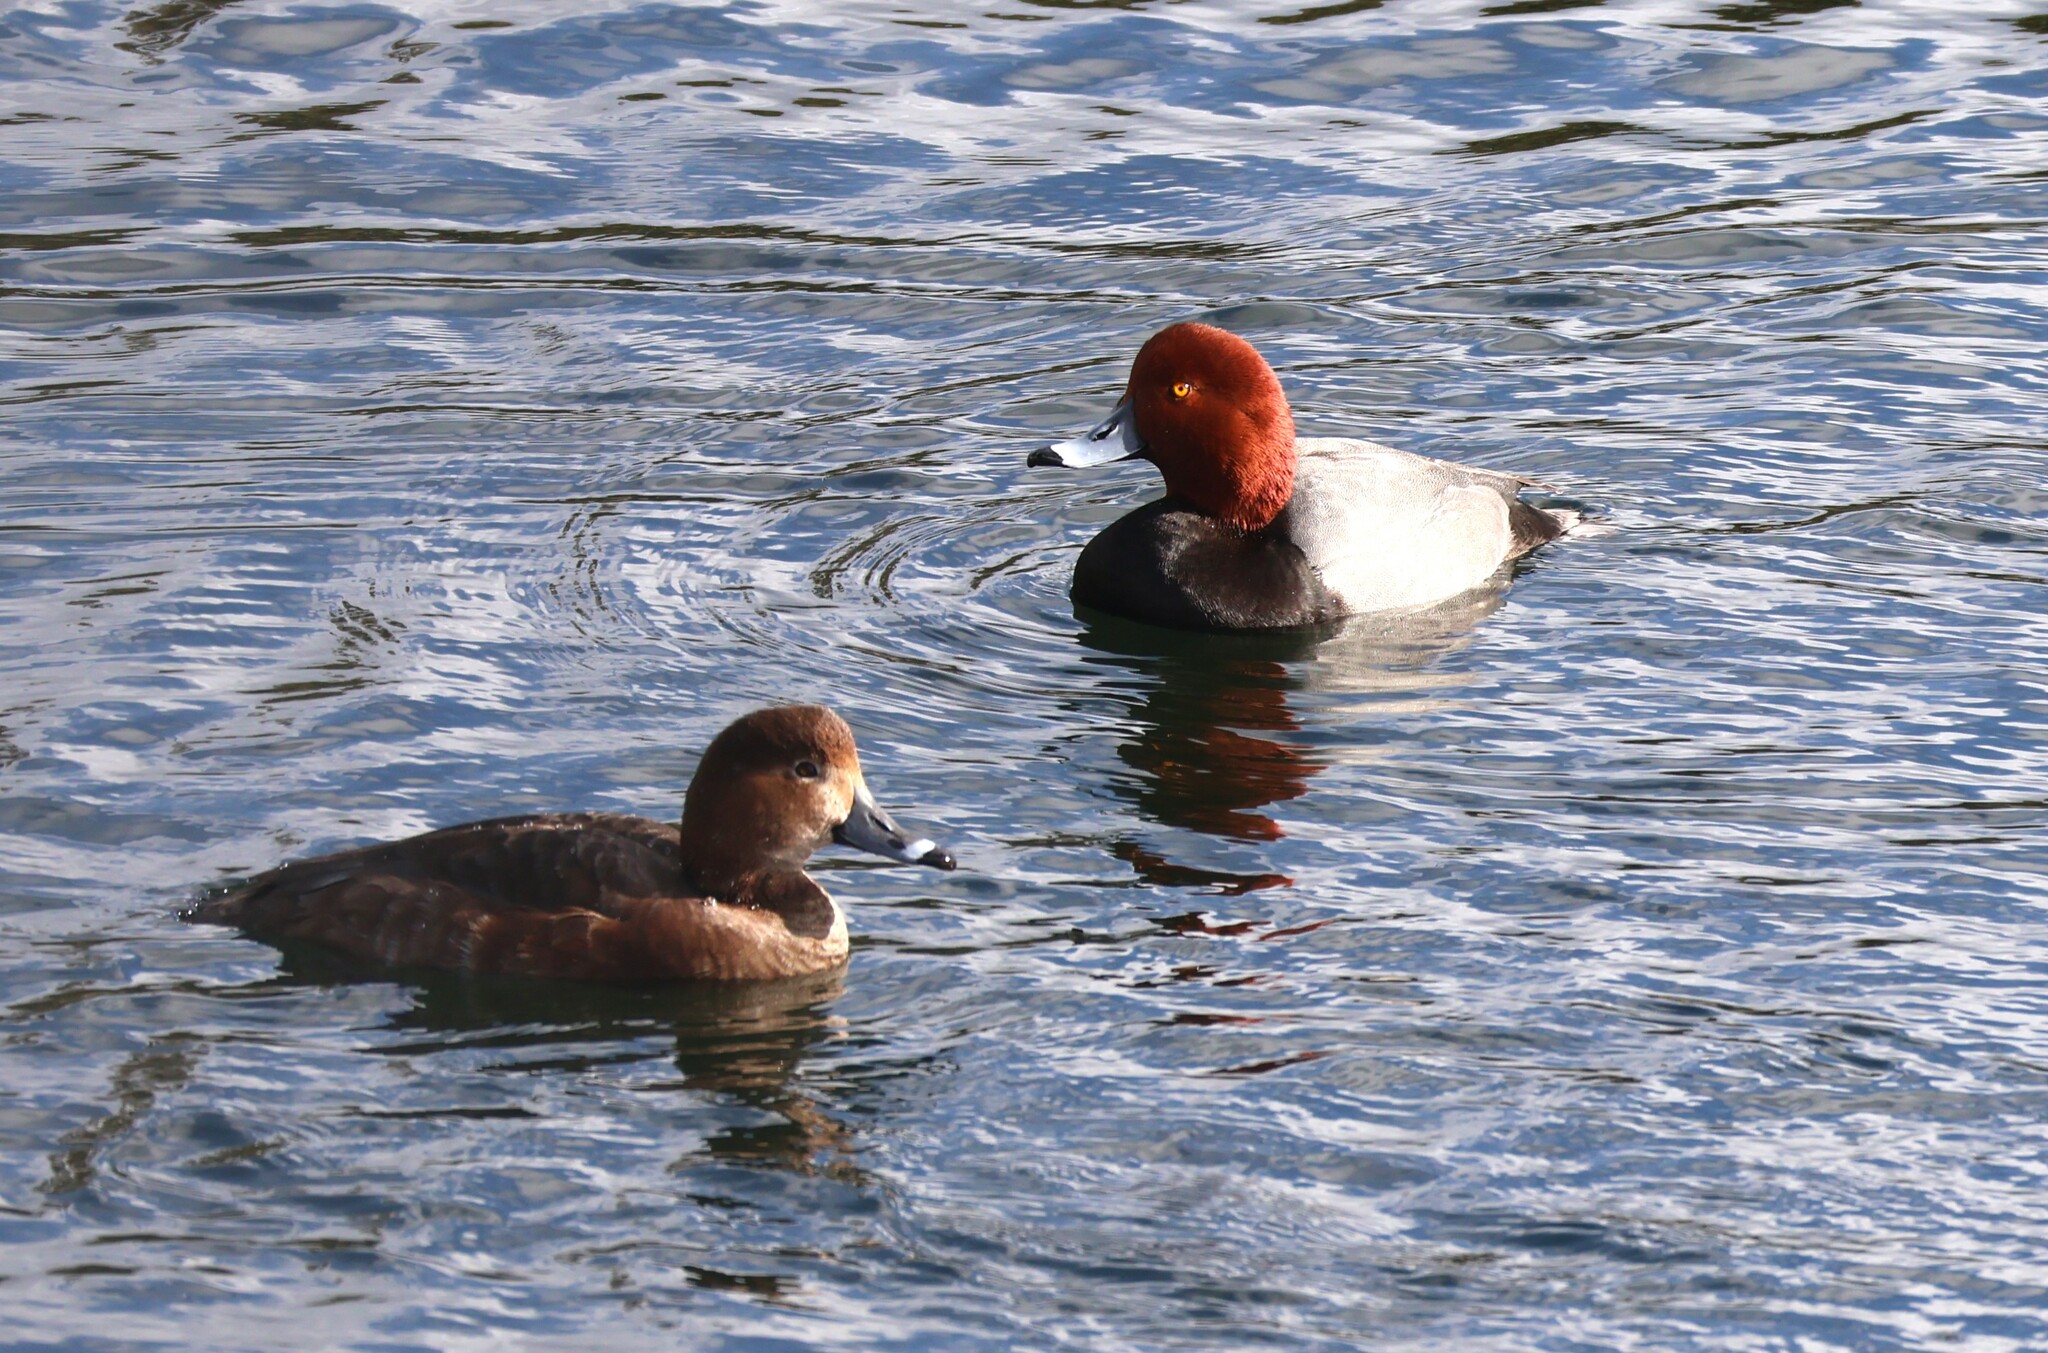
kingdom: Animalia
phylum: Chordata
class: Aves
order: Anseriformes
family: Anatidae
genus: Aythya
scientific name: Aythya americana
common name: Redhead
